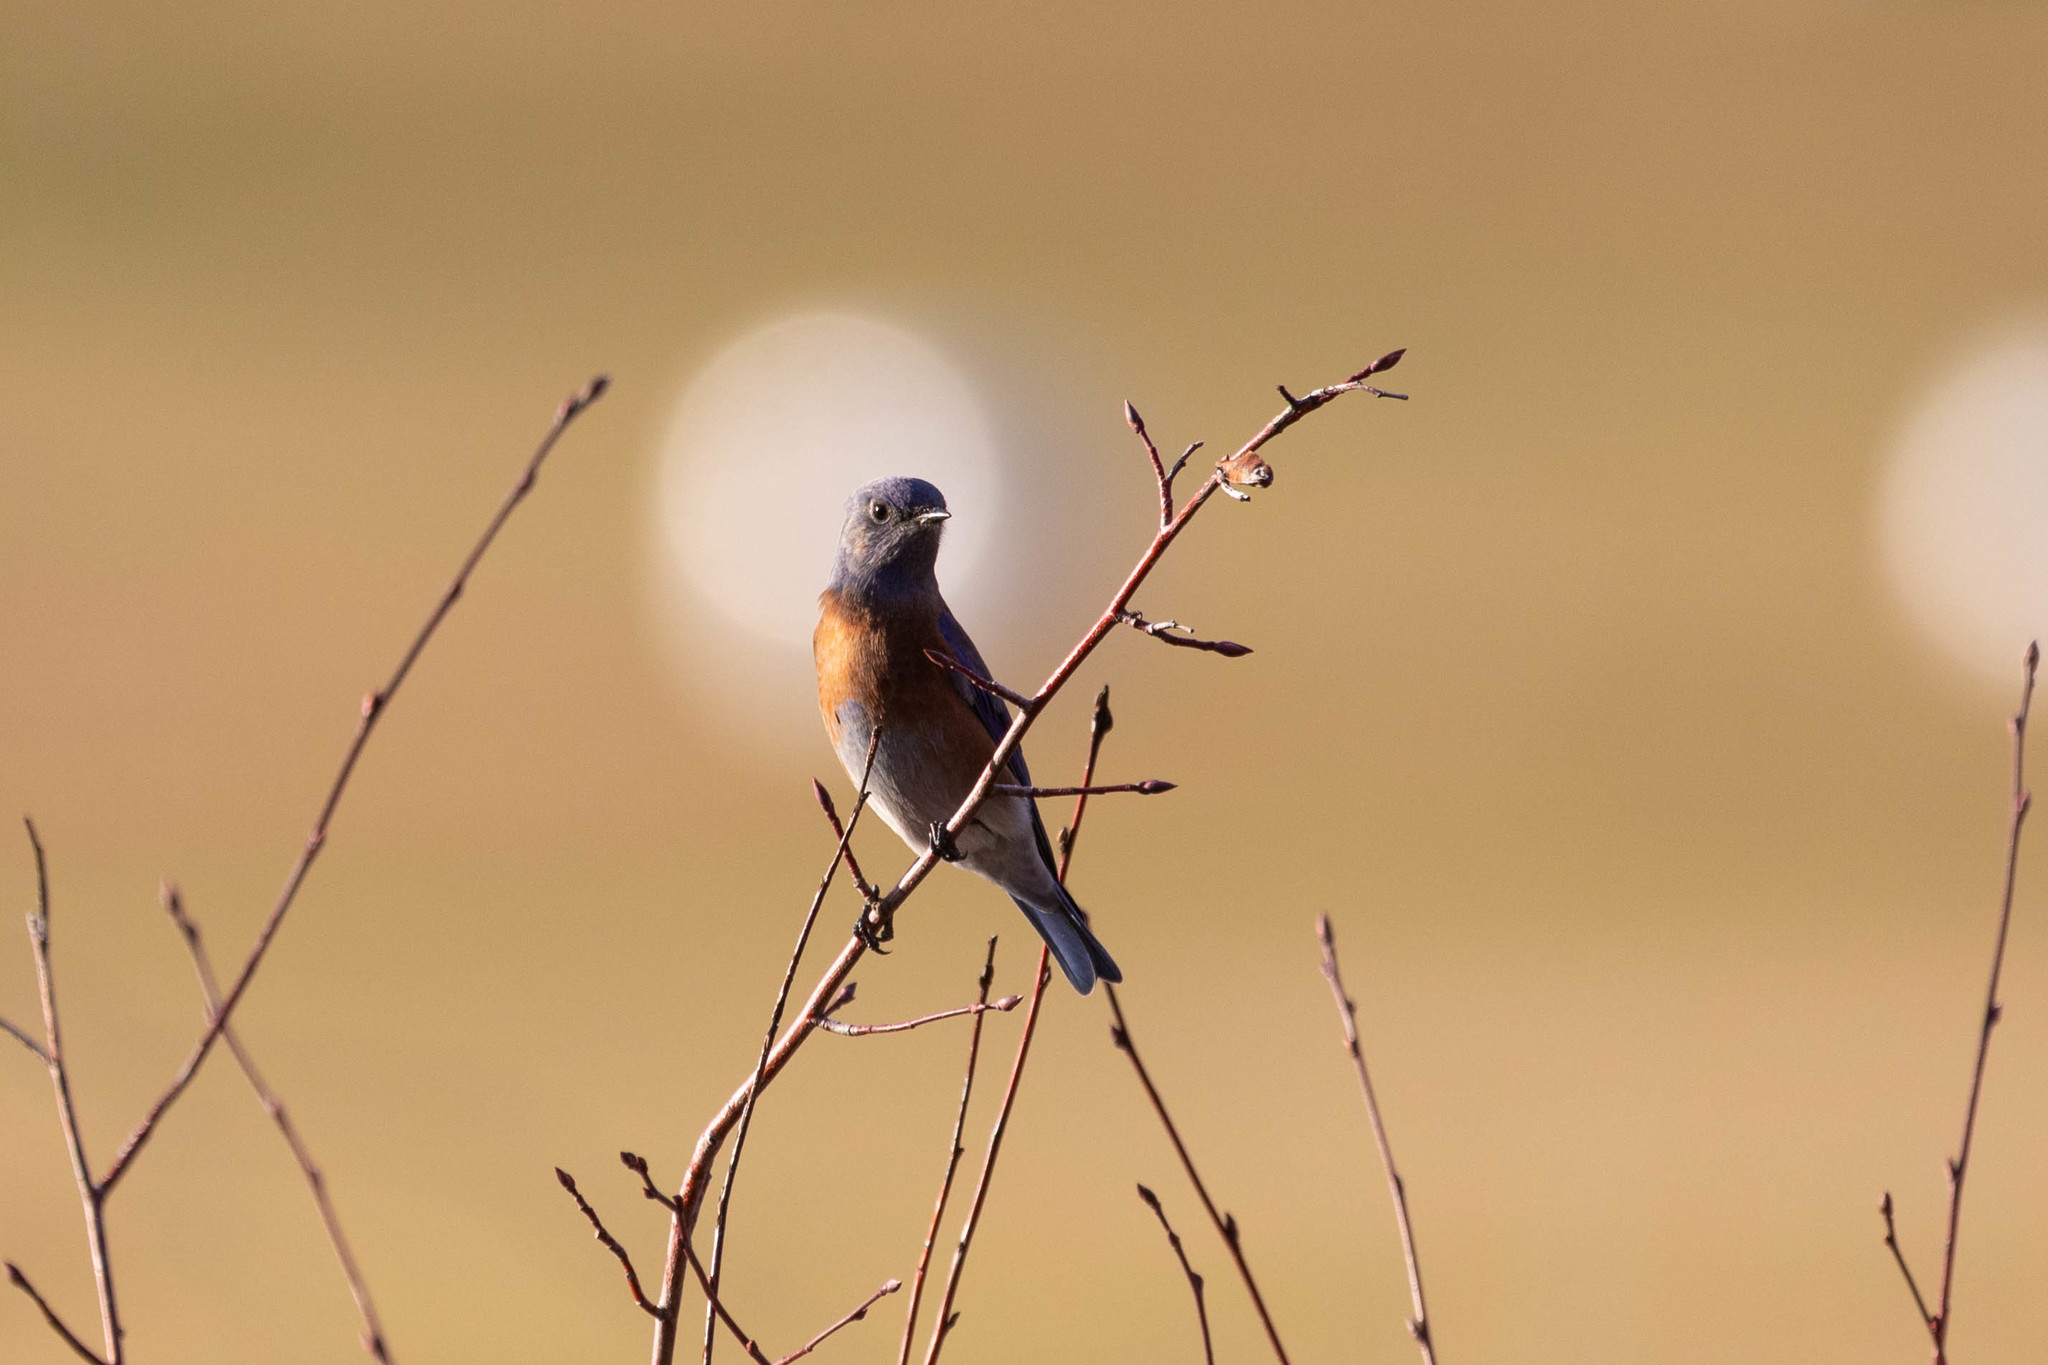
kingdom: Animalia
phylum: Chordata
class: Aves
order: Passeriformes
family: Turdidae
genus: Sialia
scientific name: Sialia mexicana
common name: Western bluebird
